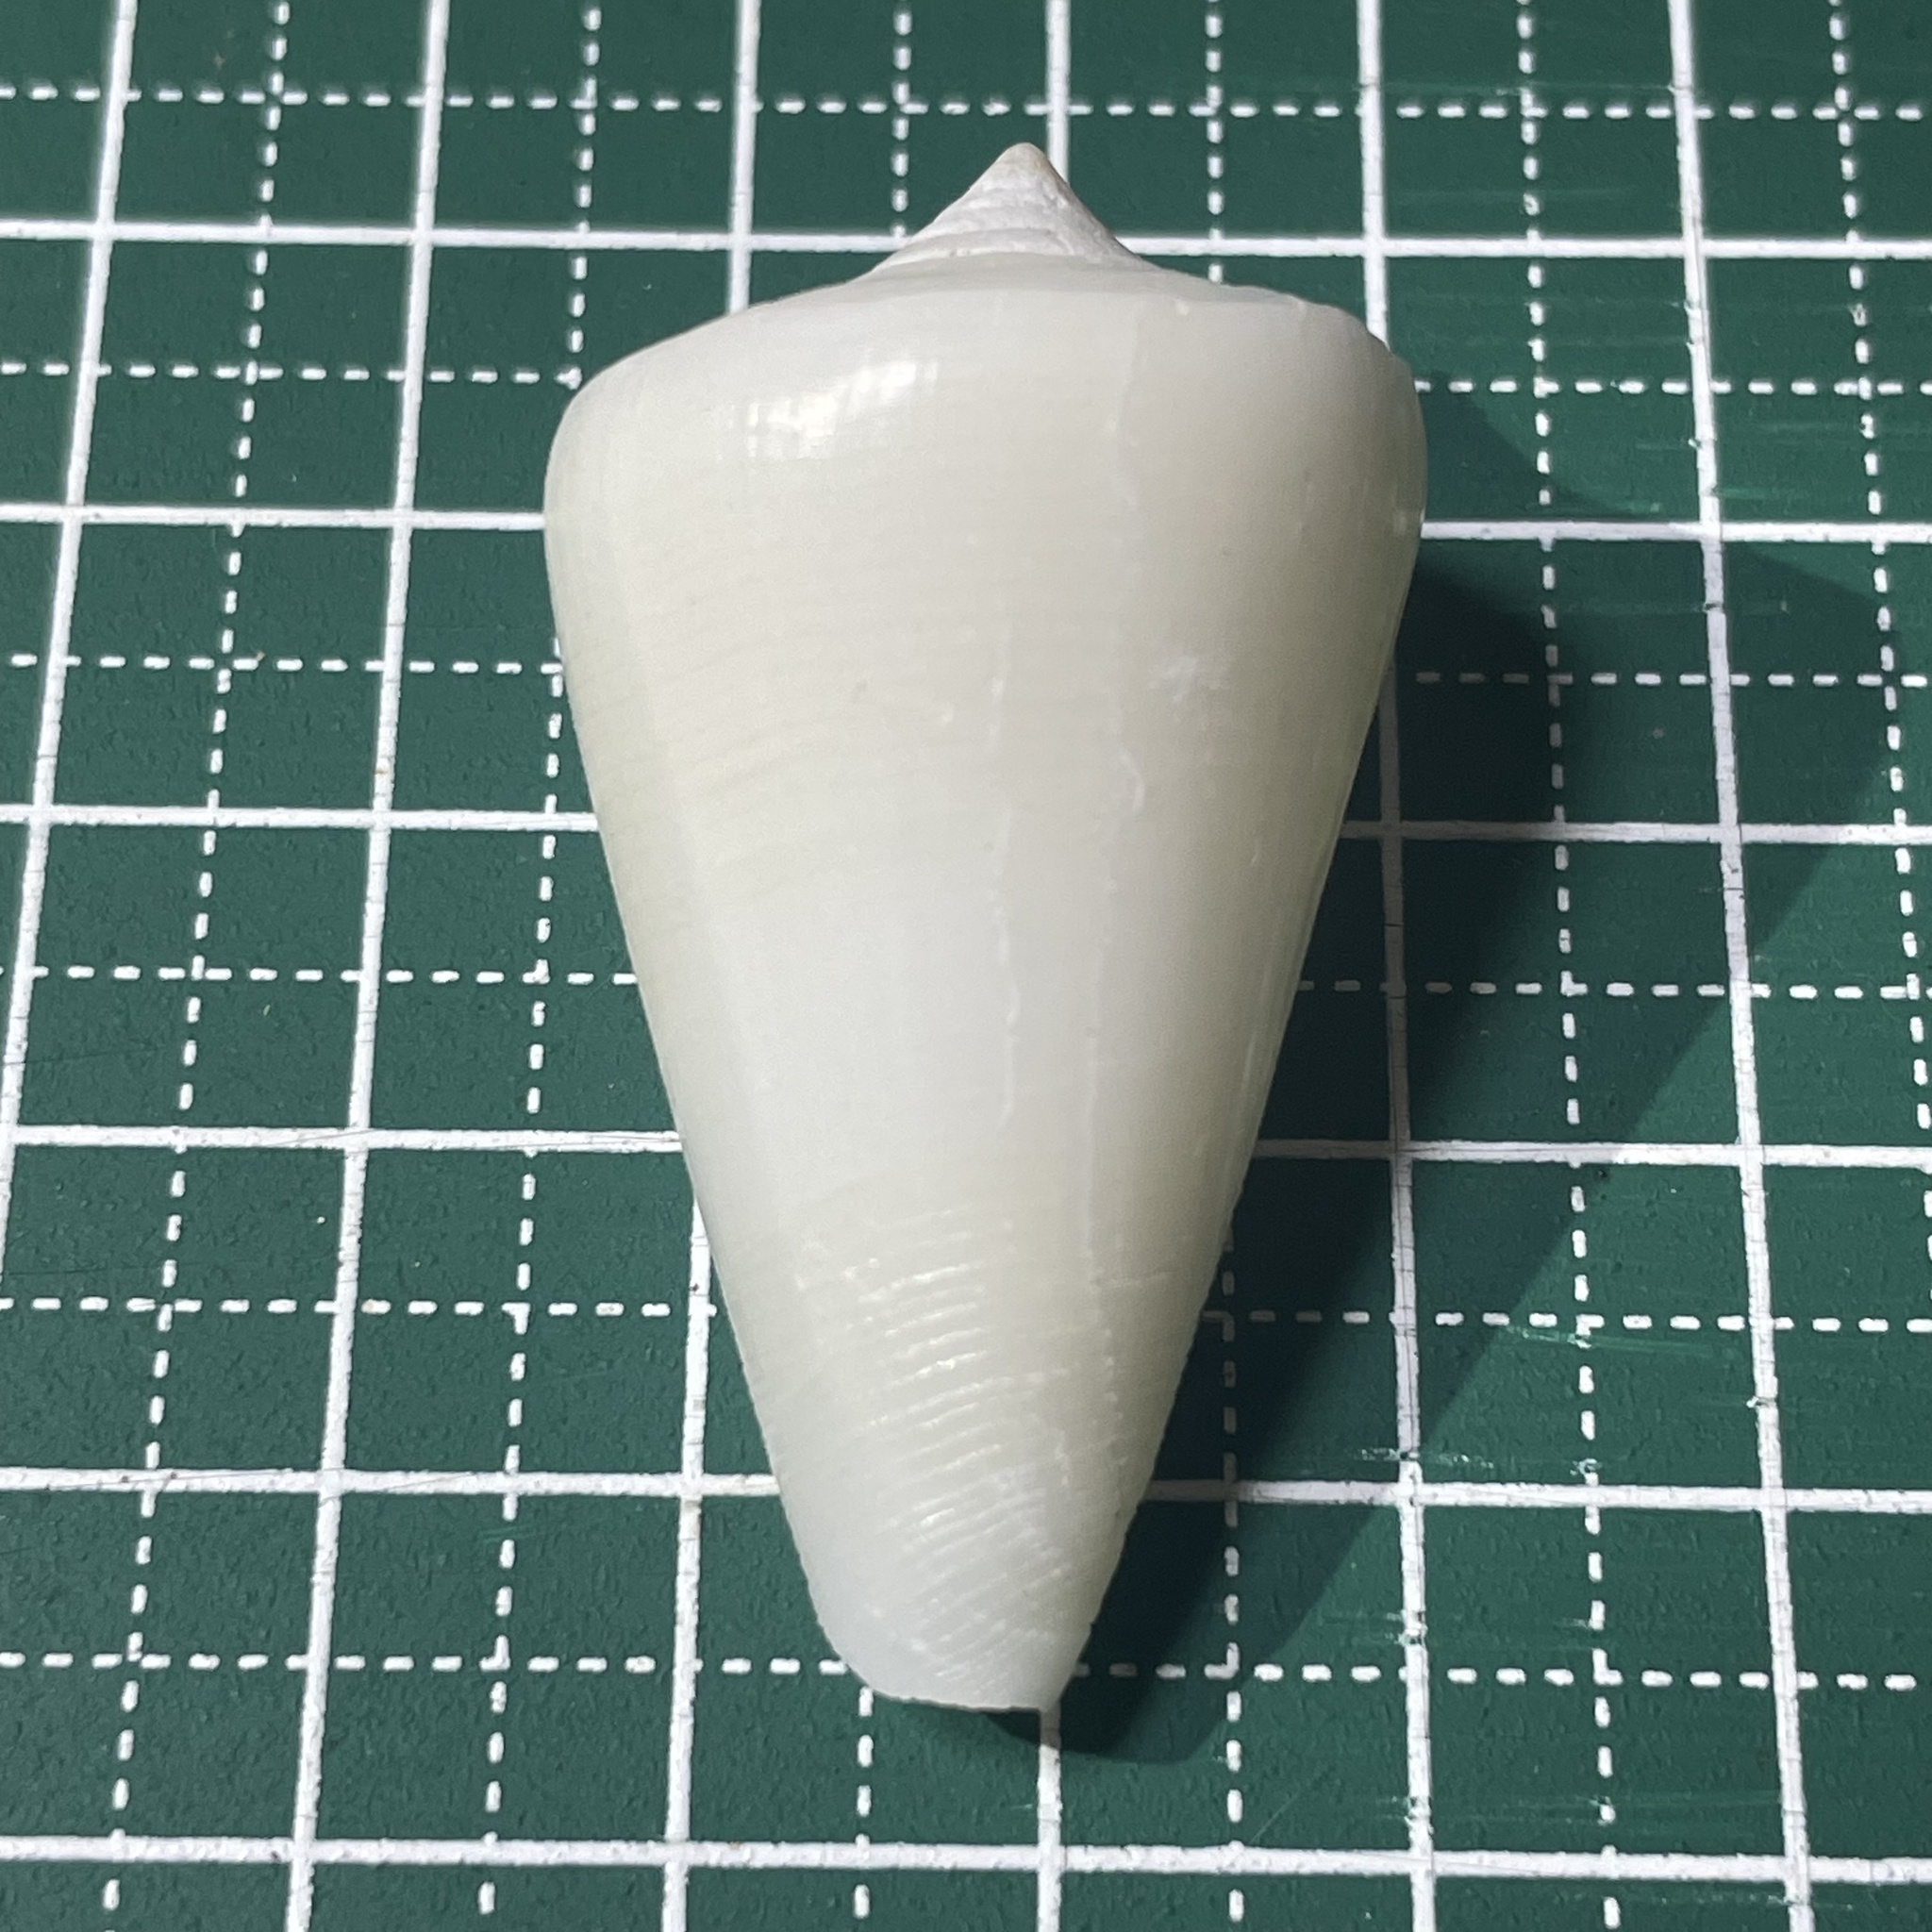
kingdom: Animalia
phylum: Mollusca
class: Gastropoda
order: Neogastropoda
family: Conidae
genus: Conus
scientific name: Conus quercinus
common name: Oak cone
